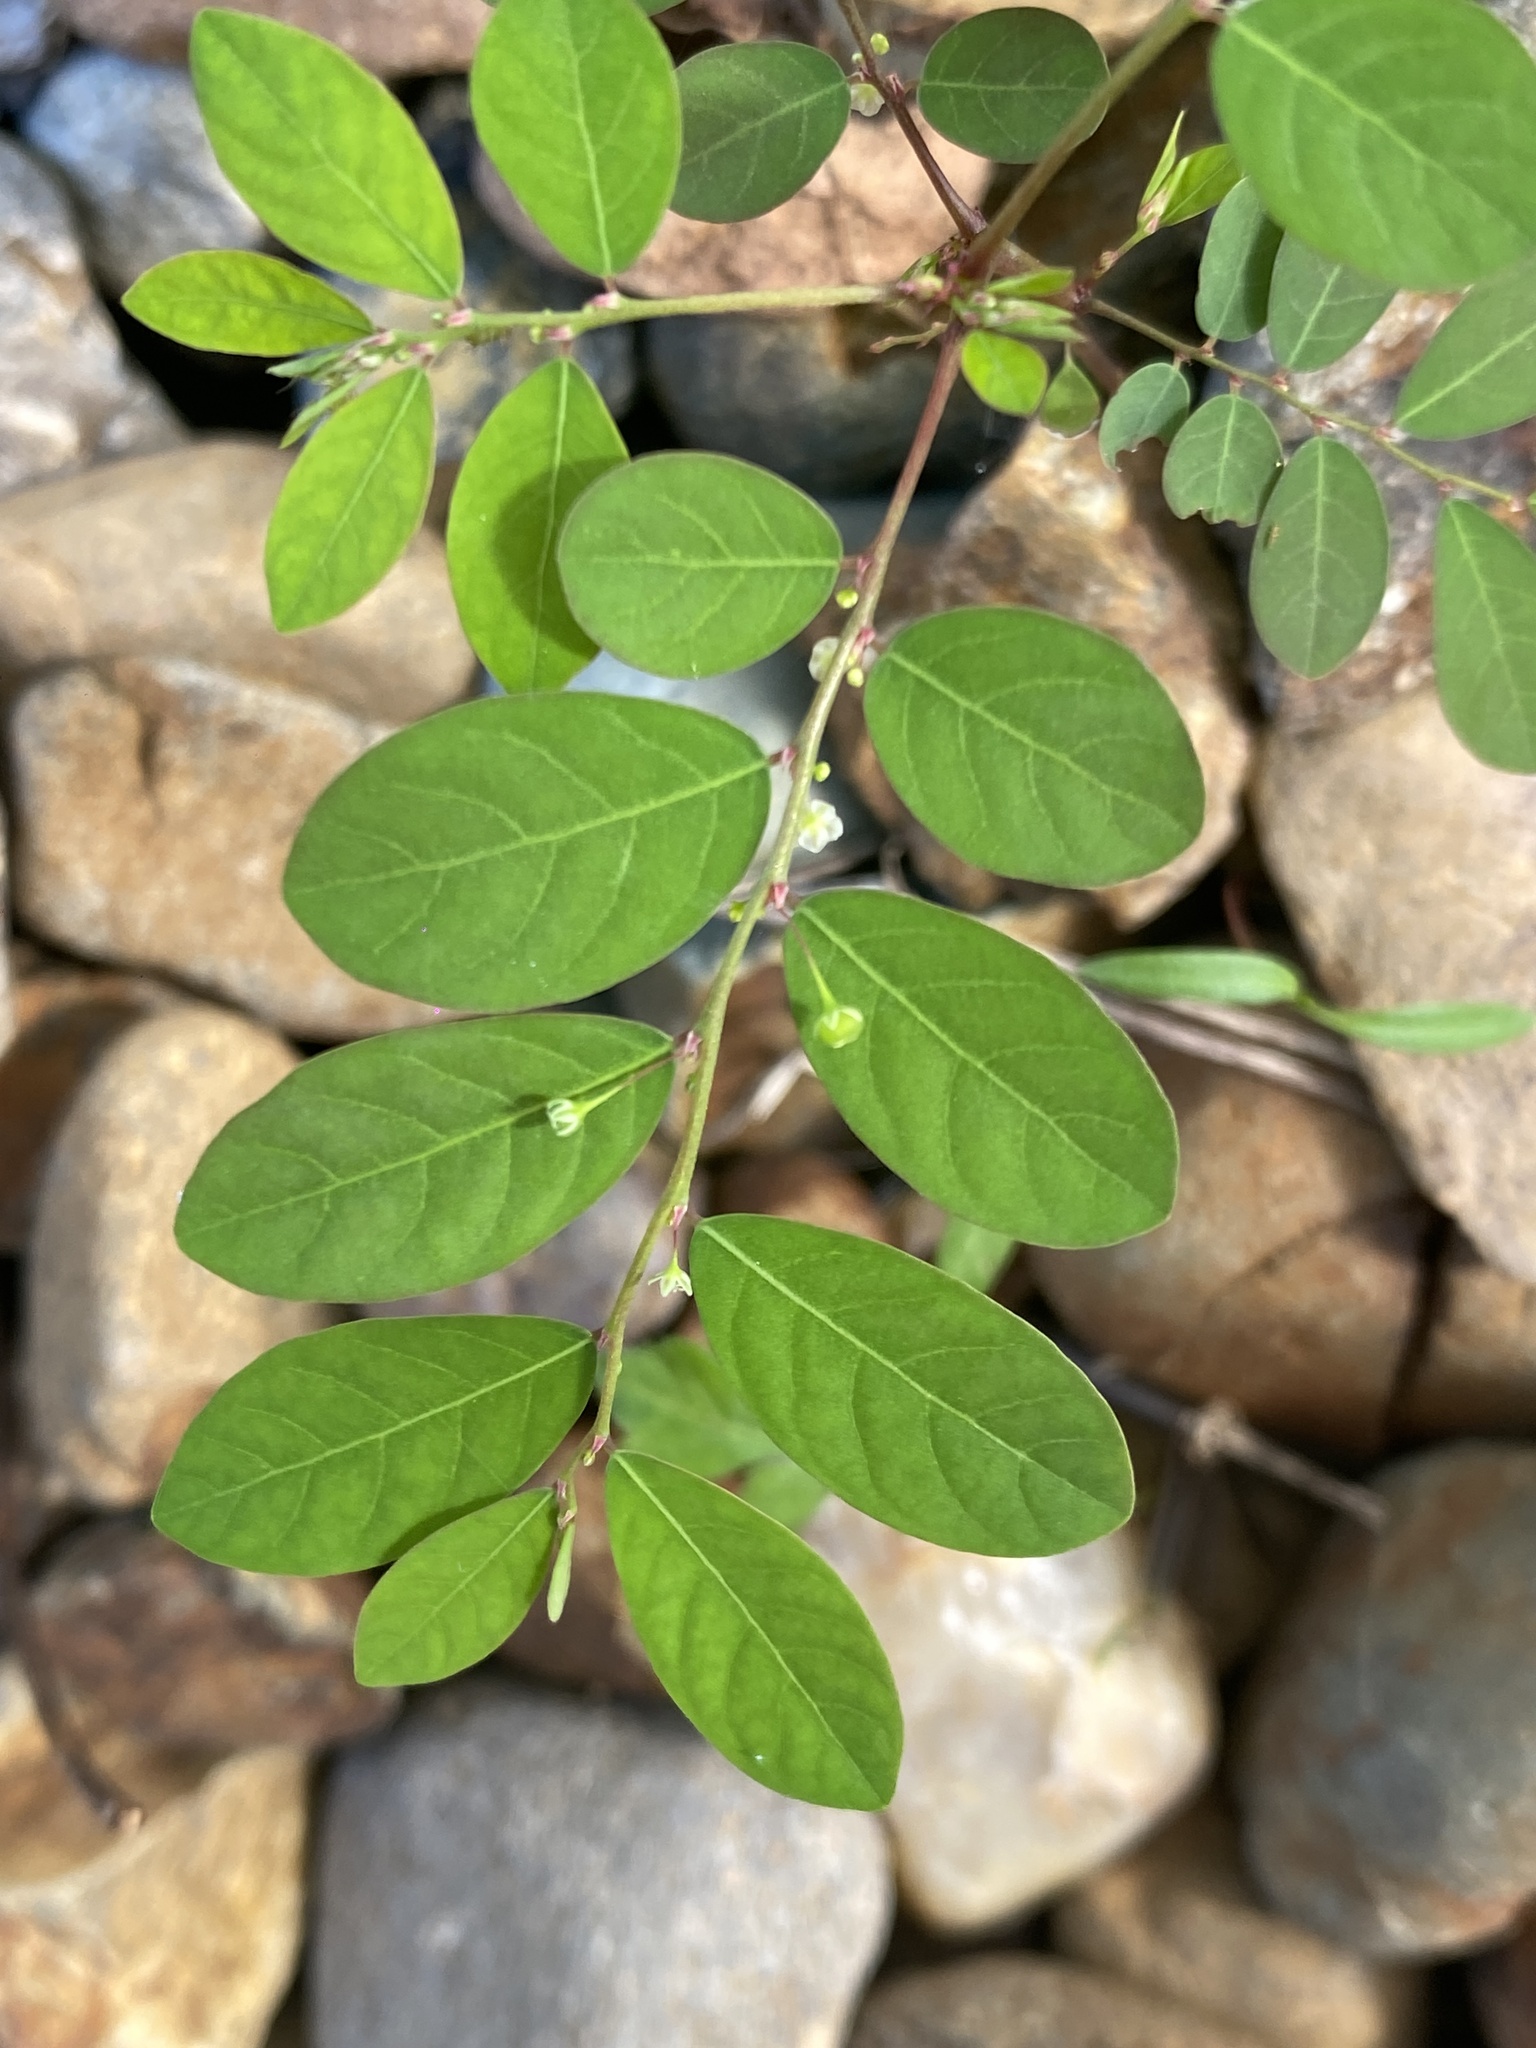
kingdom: Plantae
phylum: Tracheophyta
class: Magnoliopsida
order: Malpighiales
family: Phyllanthaceae
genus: Phyllanthus
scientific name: Phyllanthus tenellus
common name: Mascarene island leaf-flower
